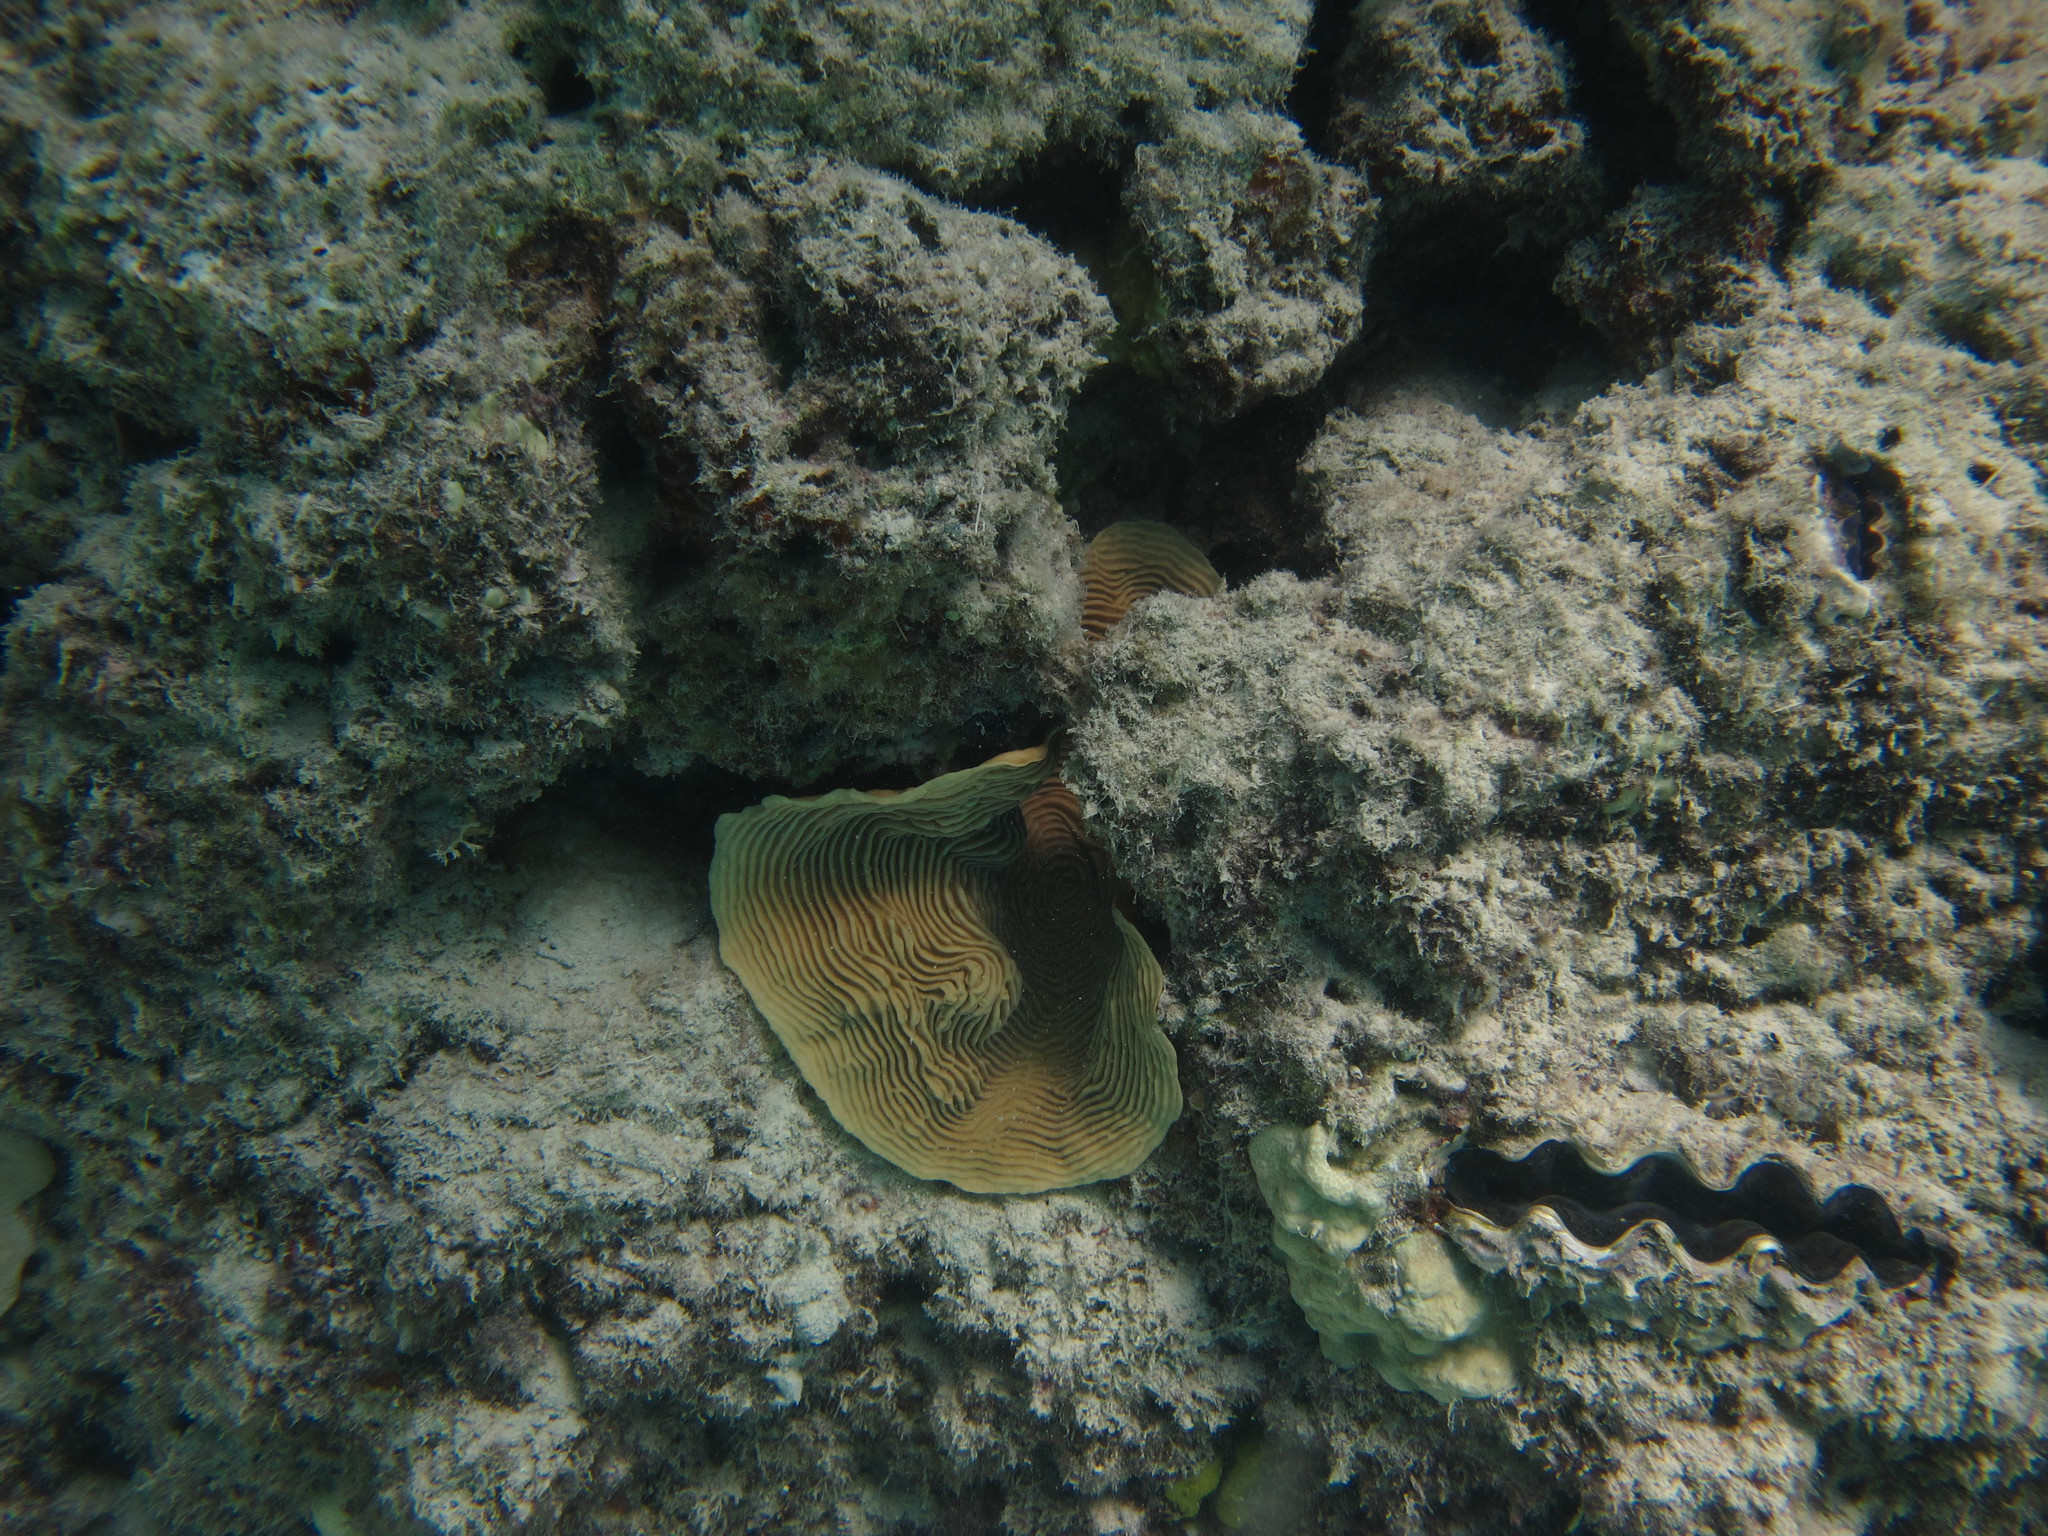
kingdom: Animalia
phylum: Cnidaria
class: Anthozoa
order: Scleractinia
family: Pachyseridae
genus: Pachyseris
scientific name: Pachyseris speciosa
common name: Serpent coral
